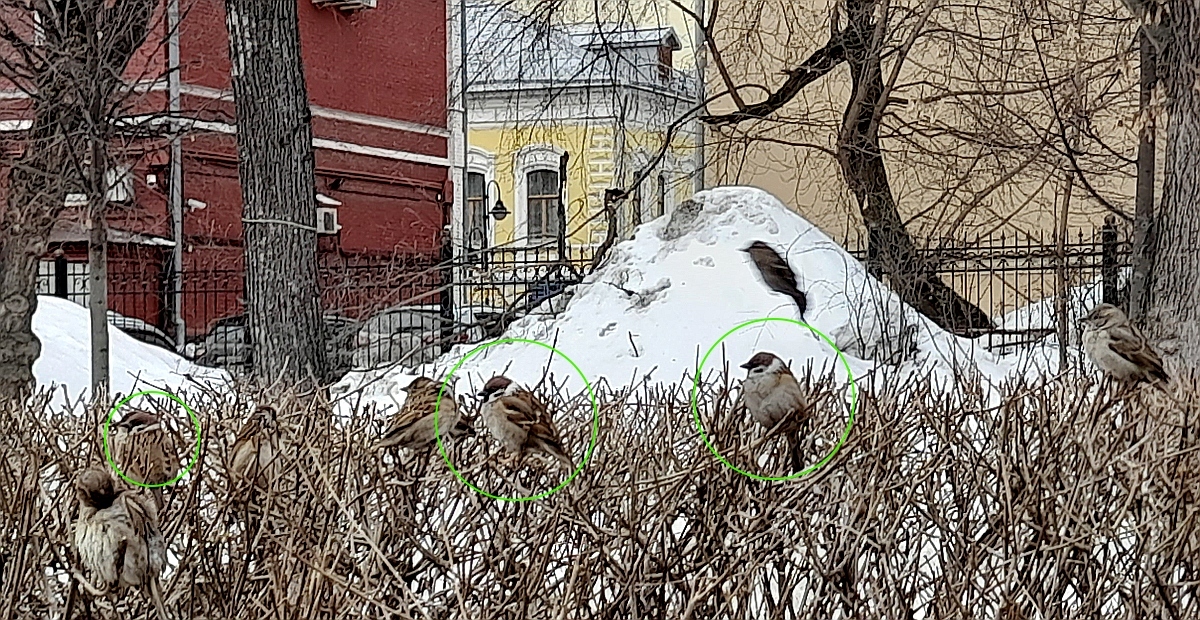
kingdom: Animalia
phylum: Chordata
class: Aves
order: Passeriformes
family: Passeridae
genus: Passer
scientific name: Passer montanus
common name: Eurasian tree sparrow
